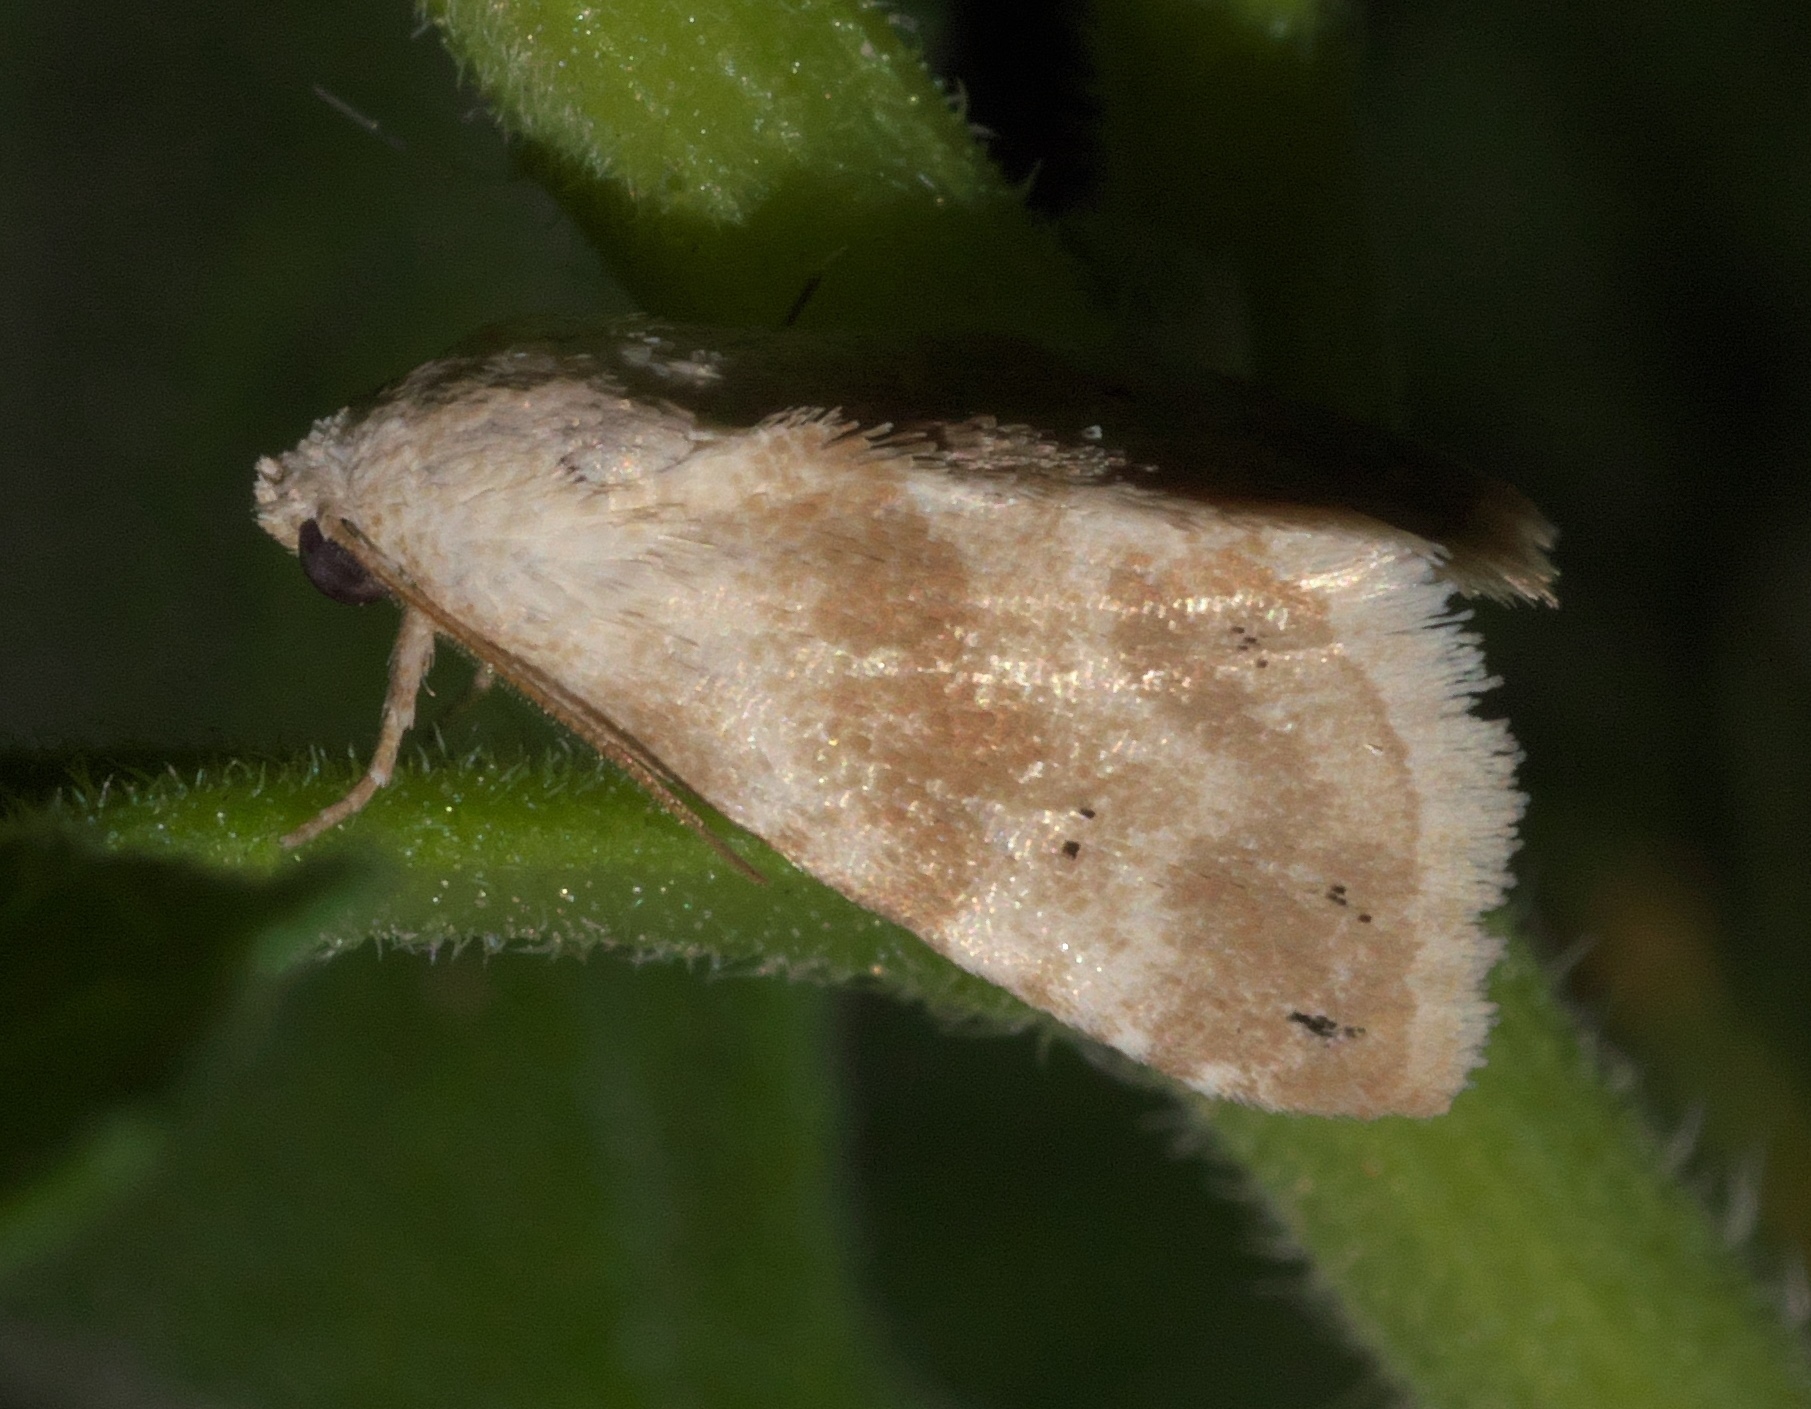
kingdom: Animalia
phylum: Arthropoda
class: Insecta
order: Lepidoptera
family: Noctuidae
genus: Eublemma
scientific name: Eublemma minima
